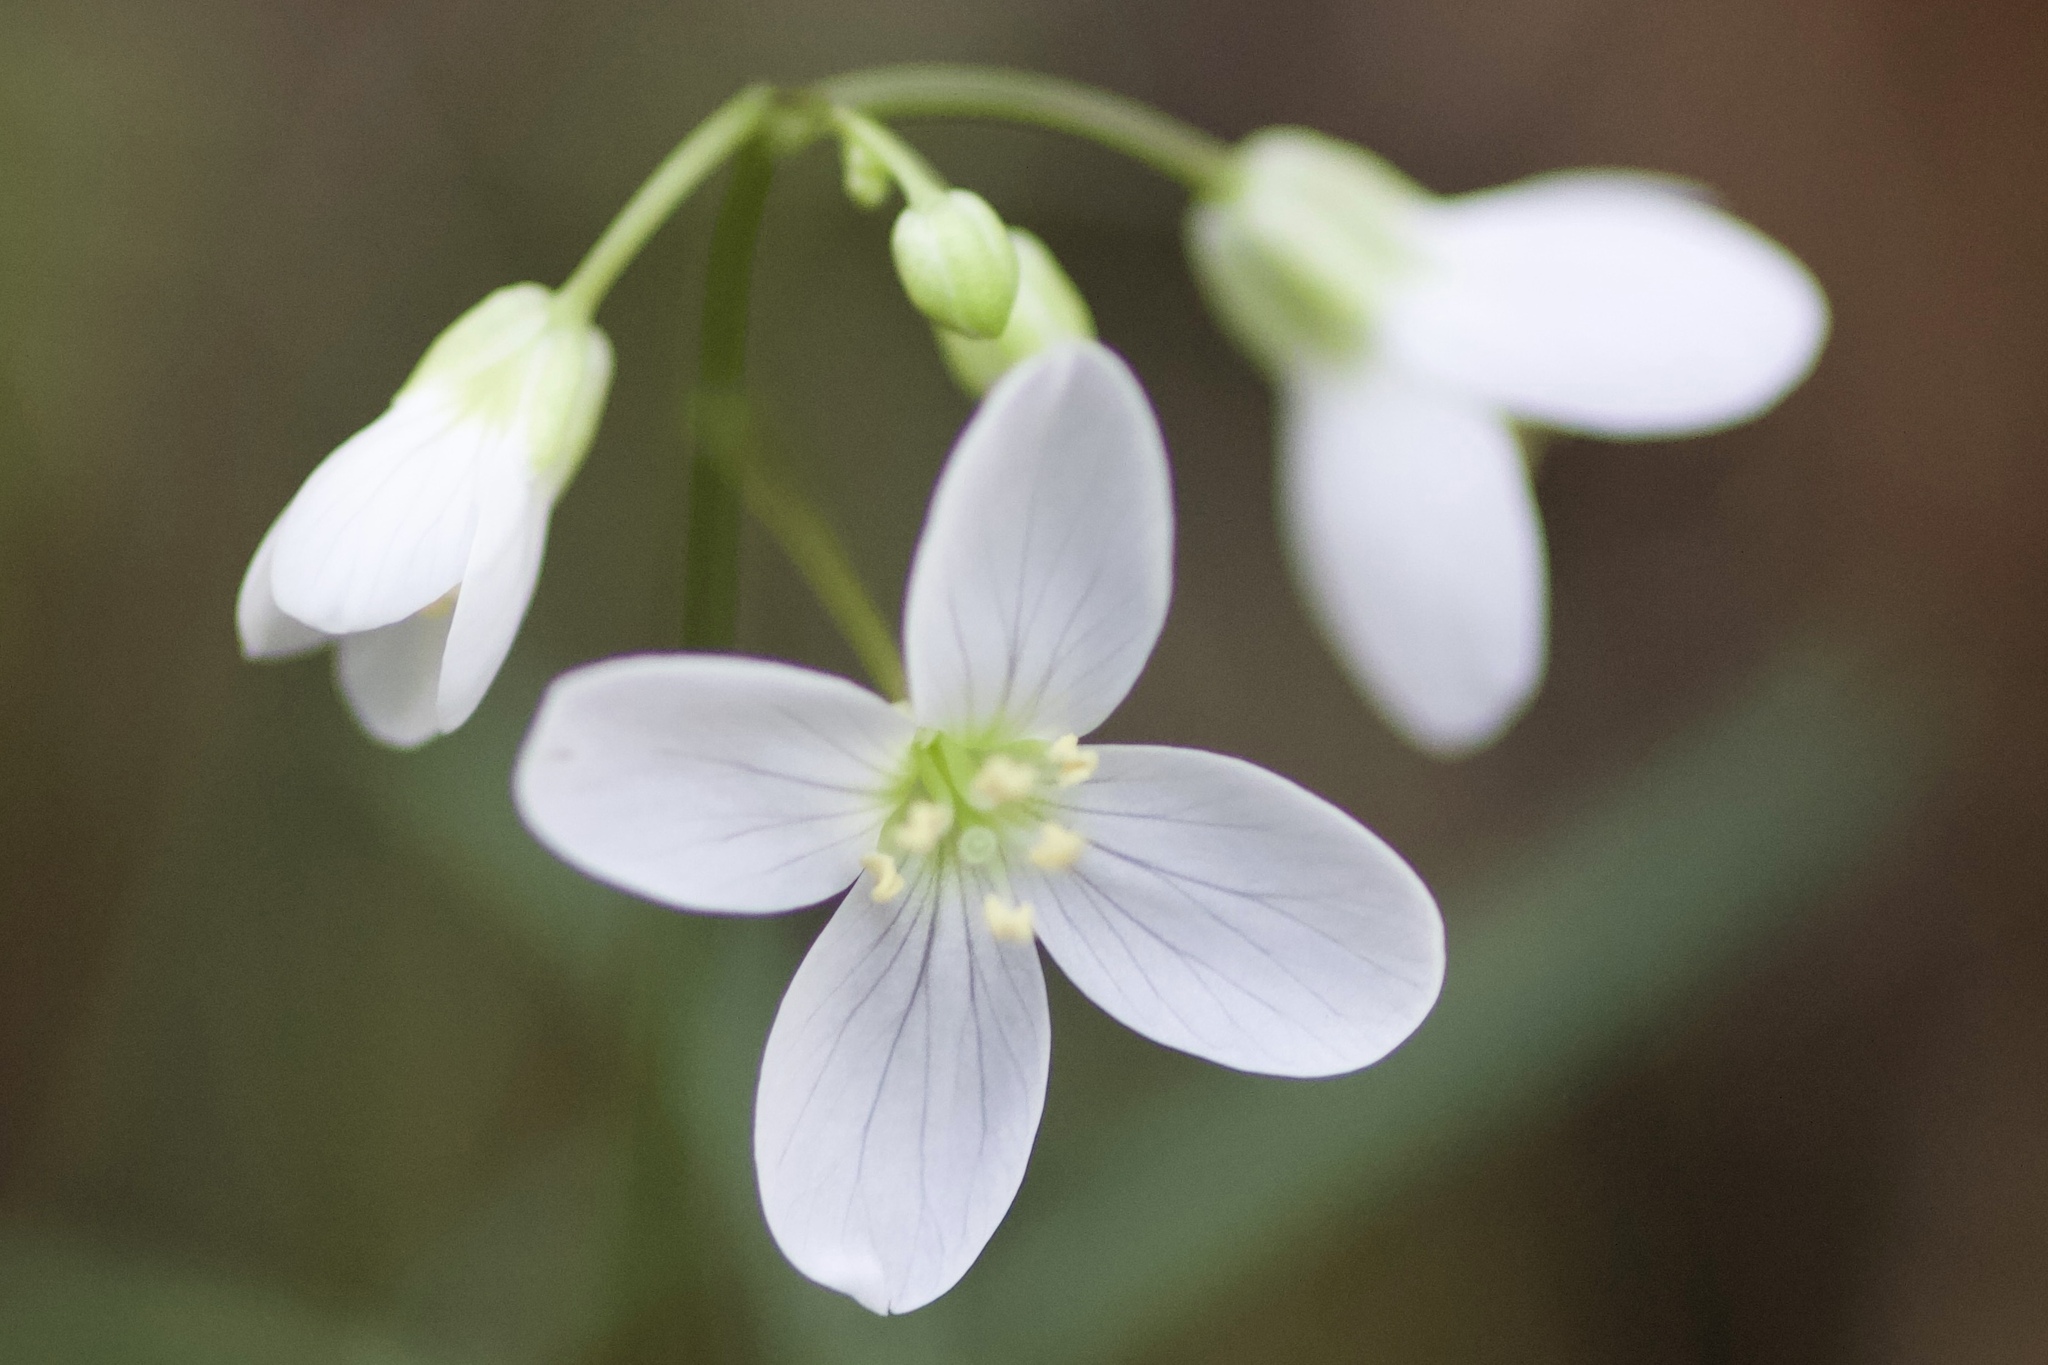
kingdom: Plantae
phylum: Tracheophyta
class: Magnoliopsida
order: Brassicales
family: Brassicaceae
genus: Cardamine
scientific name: Cardamine californica
